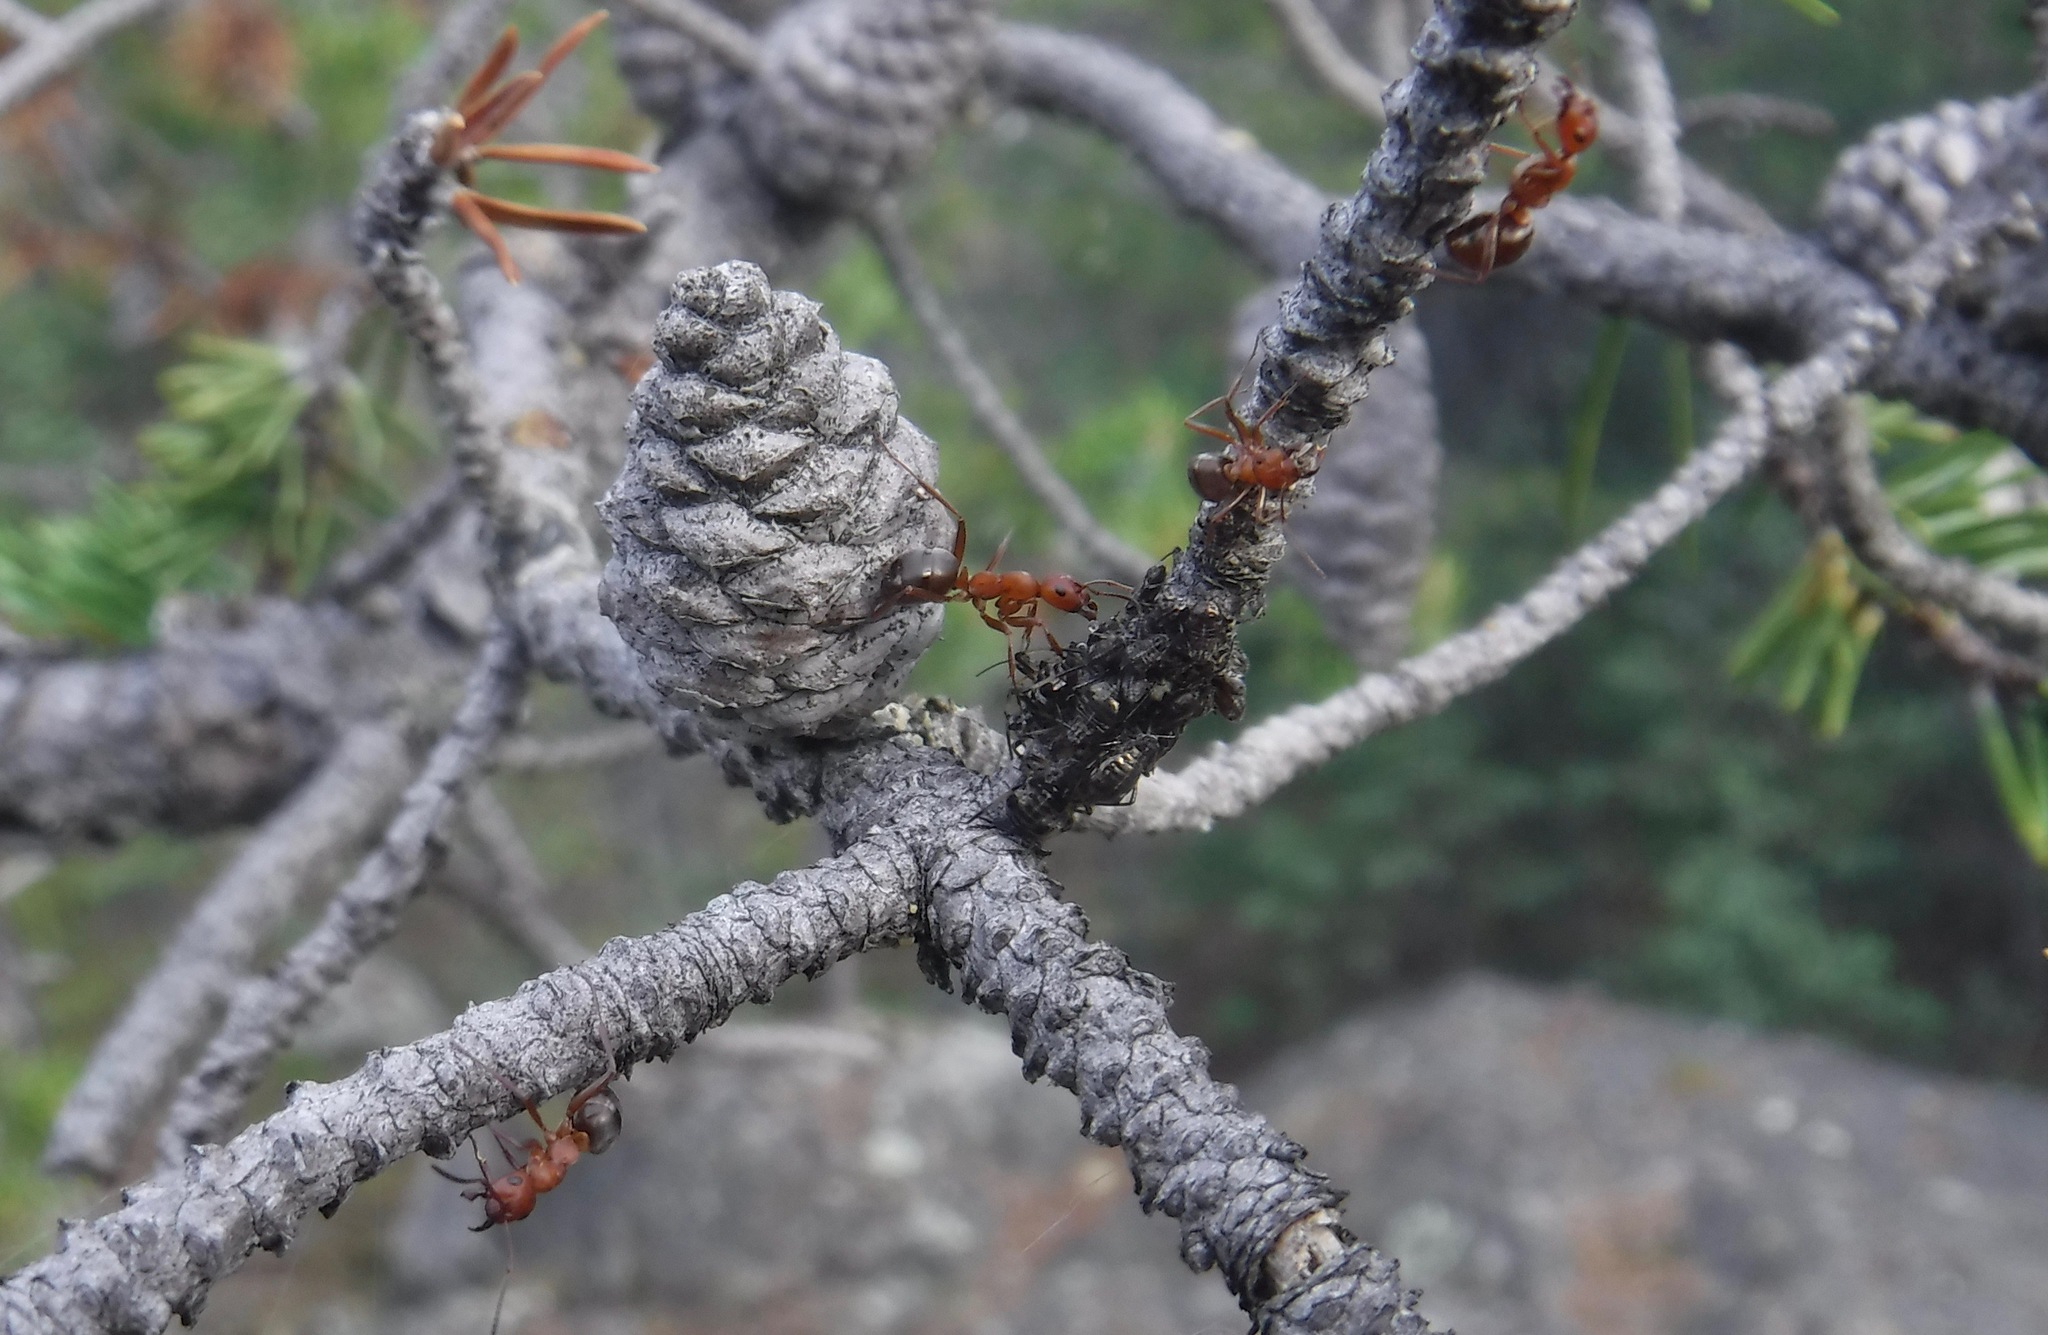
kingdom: Animalia
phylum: Arthropoda
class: Insecta
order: Hymenoptera
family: Formicidae
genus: Formica
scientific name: Formica aserva
